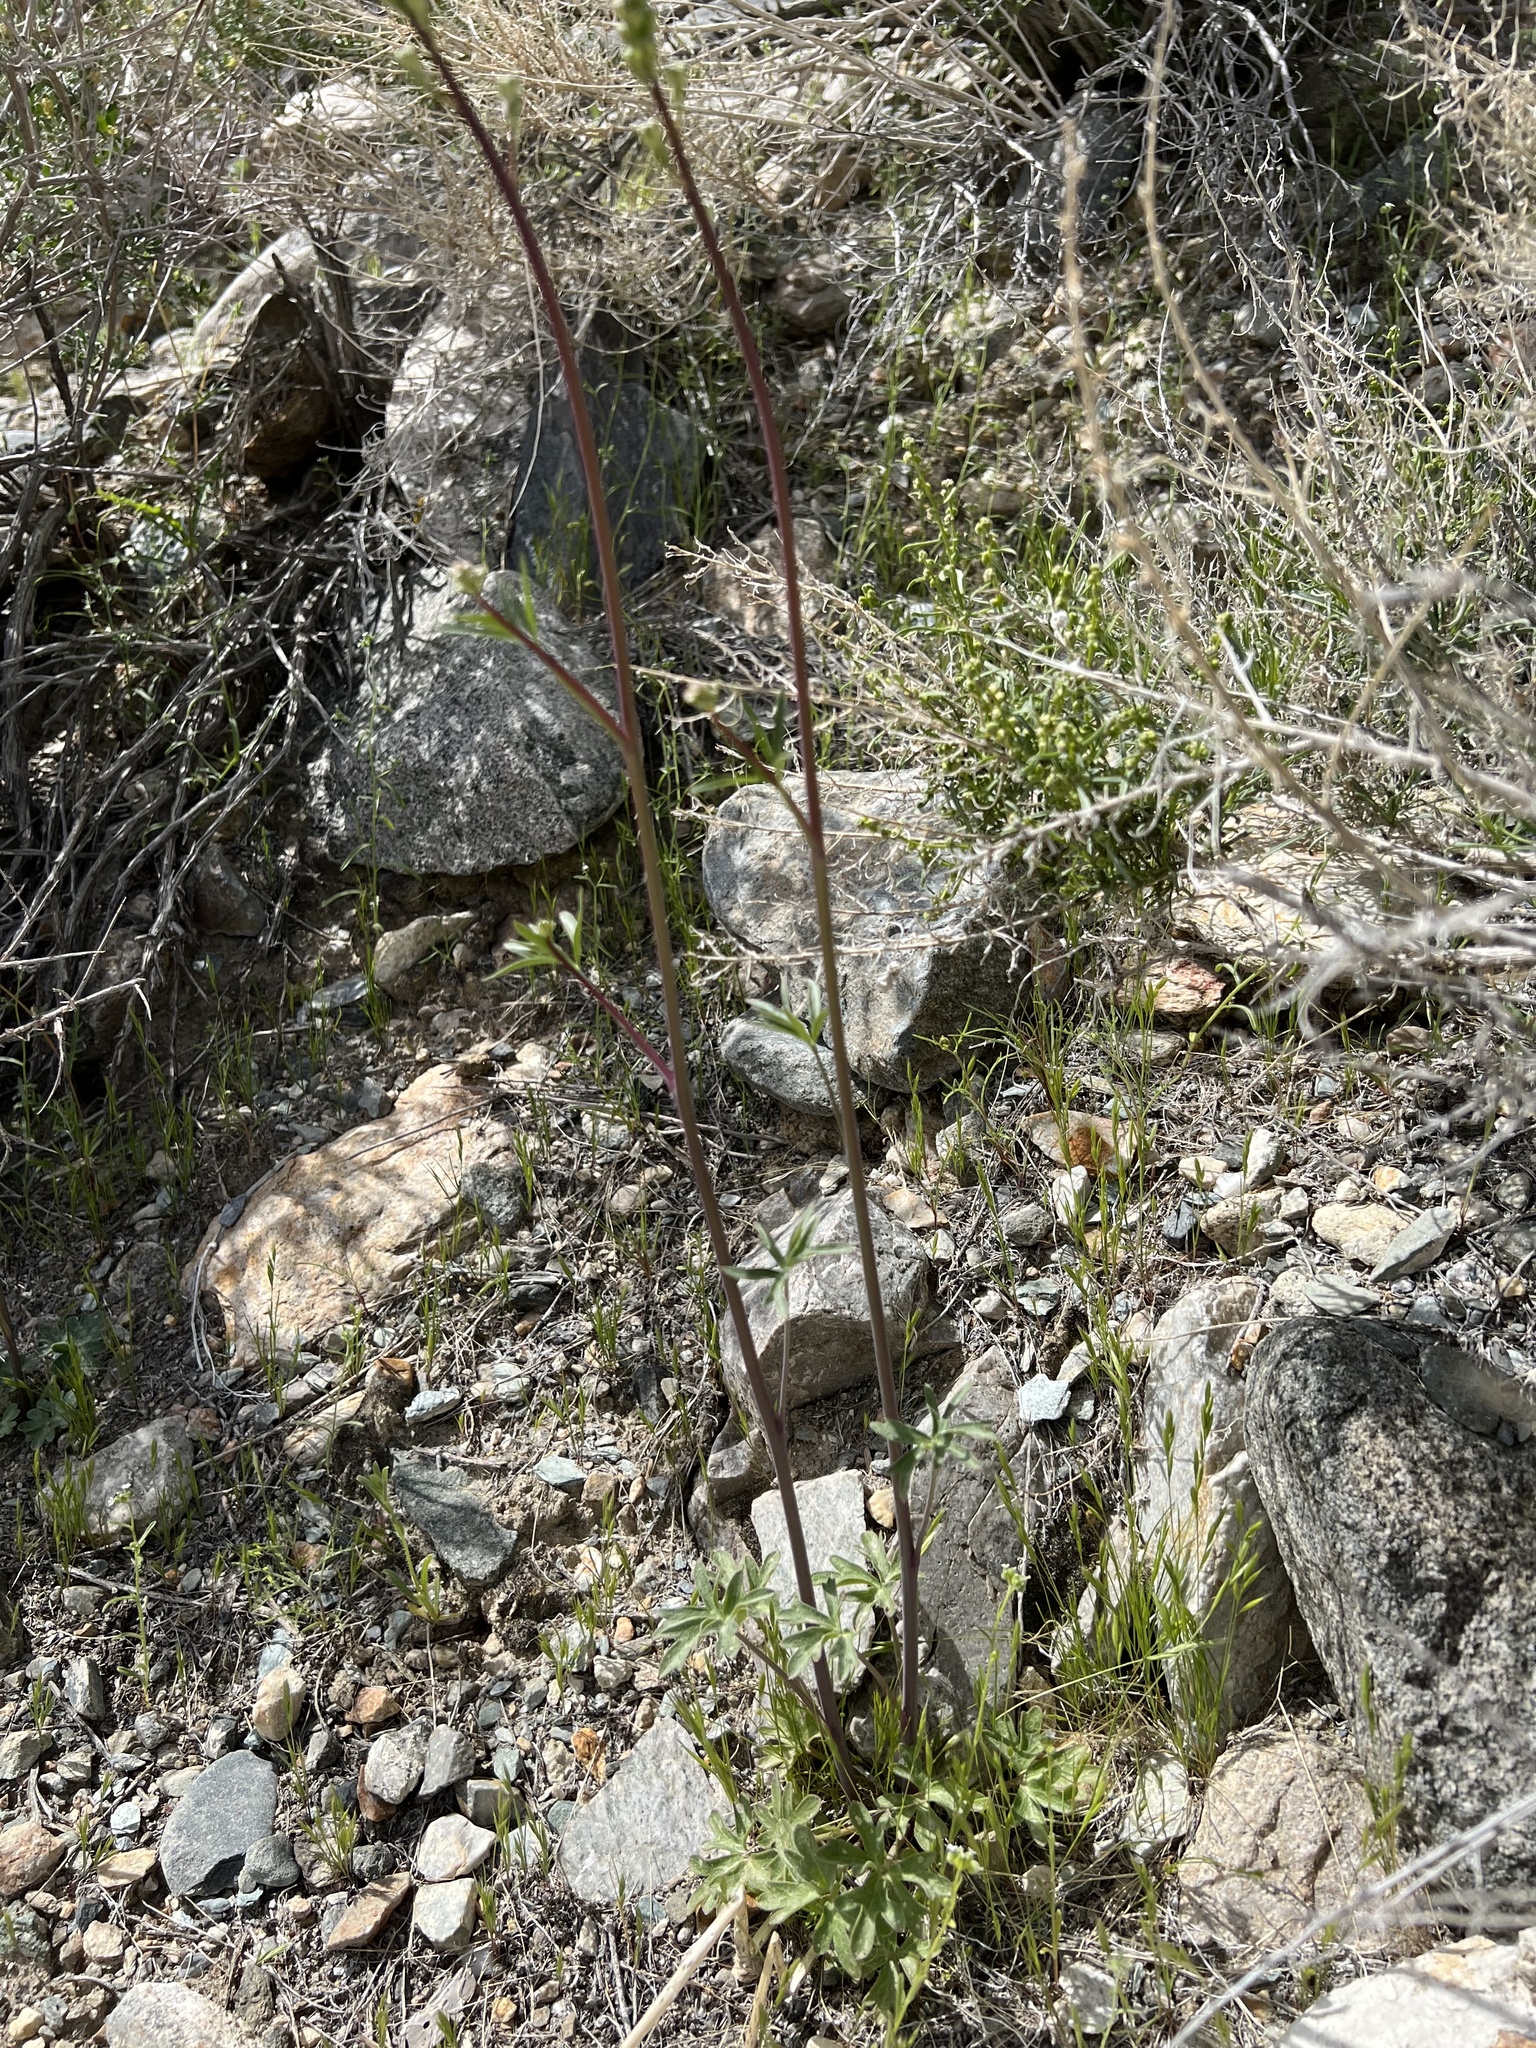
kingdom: Plantae
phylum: Tracheophyta
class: Magnoliopsida
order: Ranunculales
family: Ranunculaceae
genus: Delphinium
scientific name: Delphinium parishii
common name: Apache larkspur
